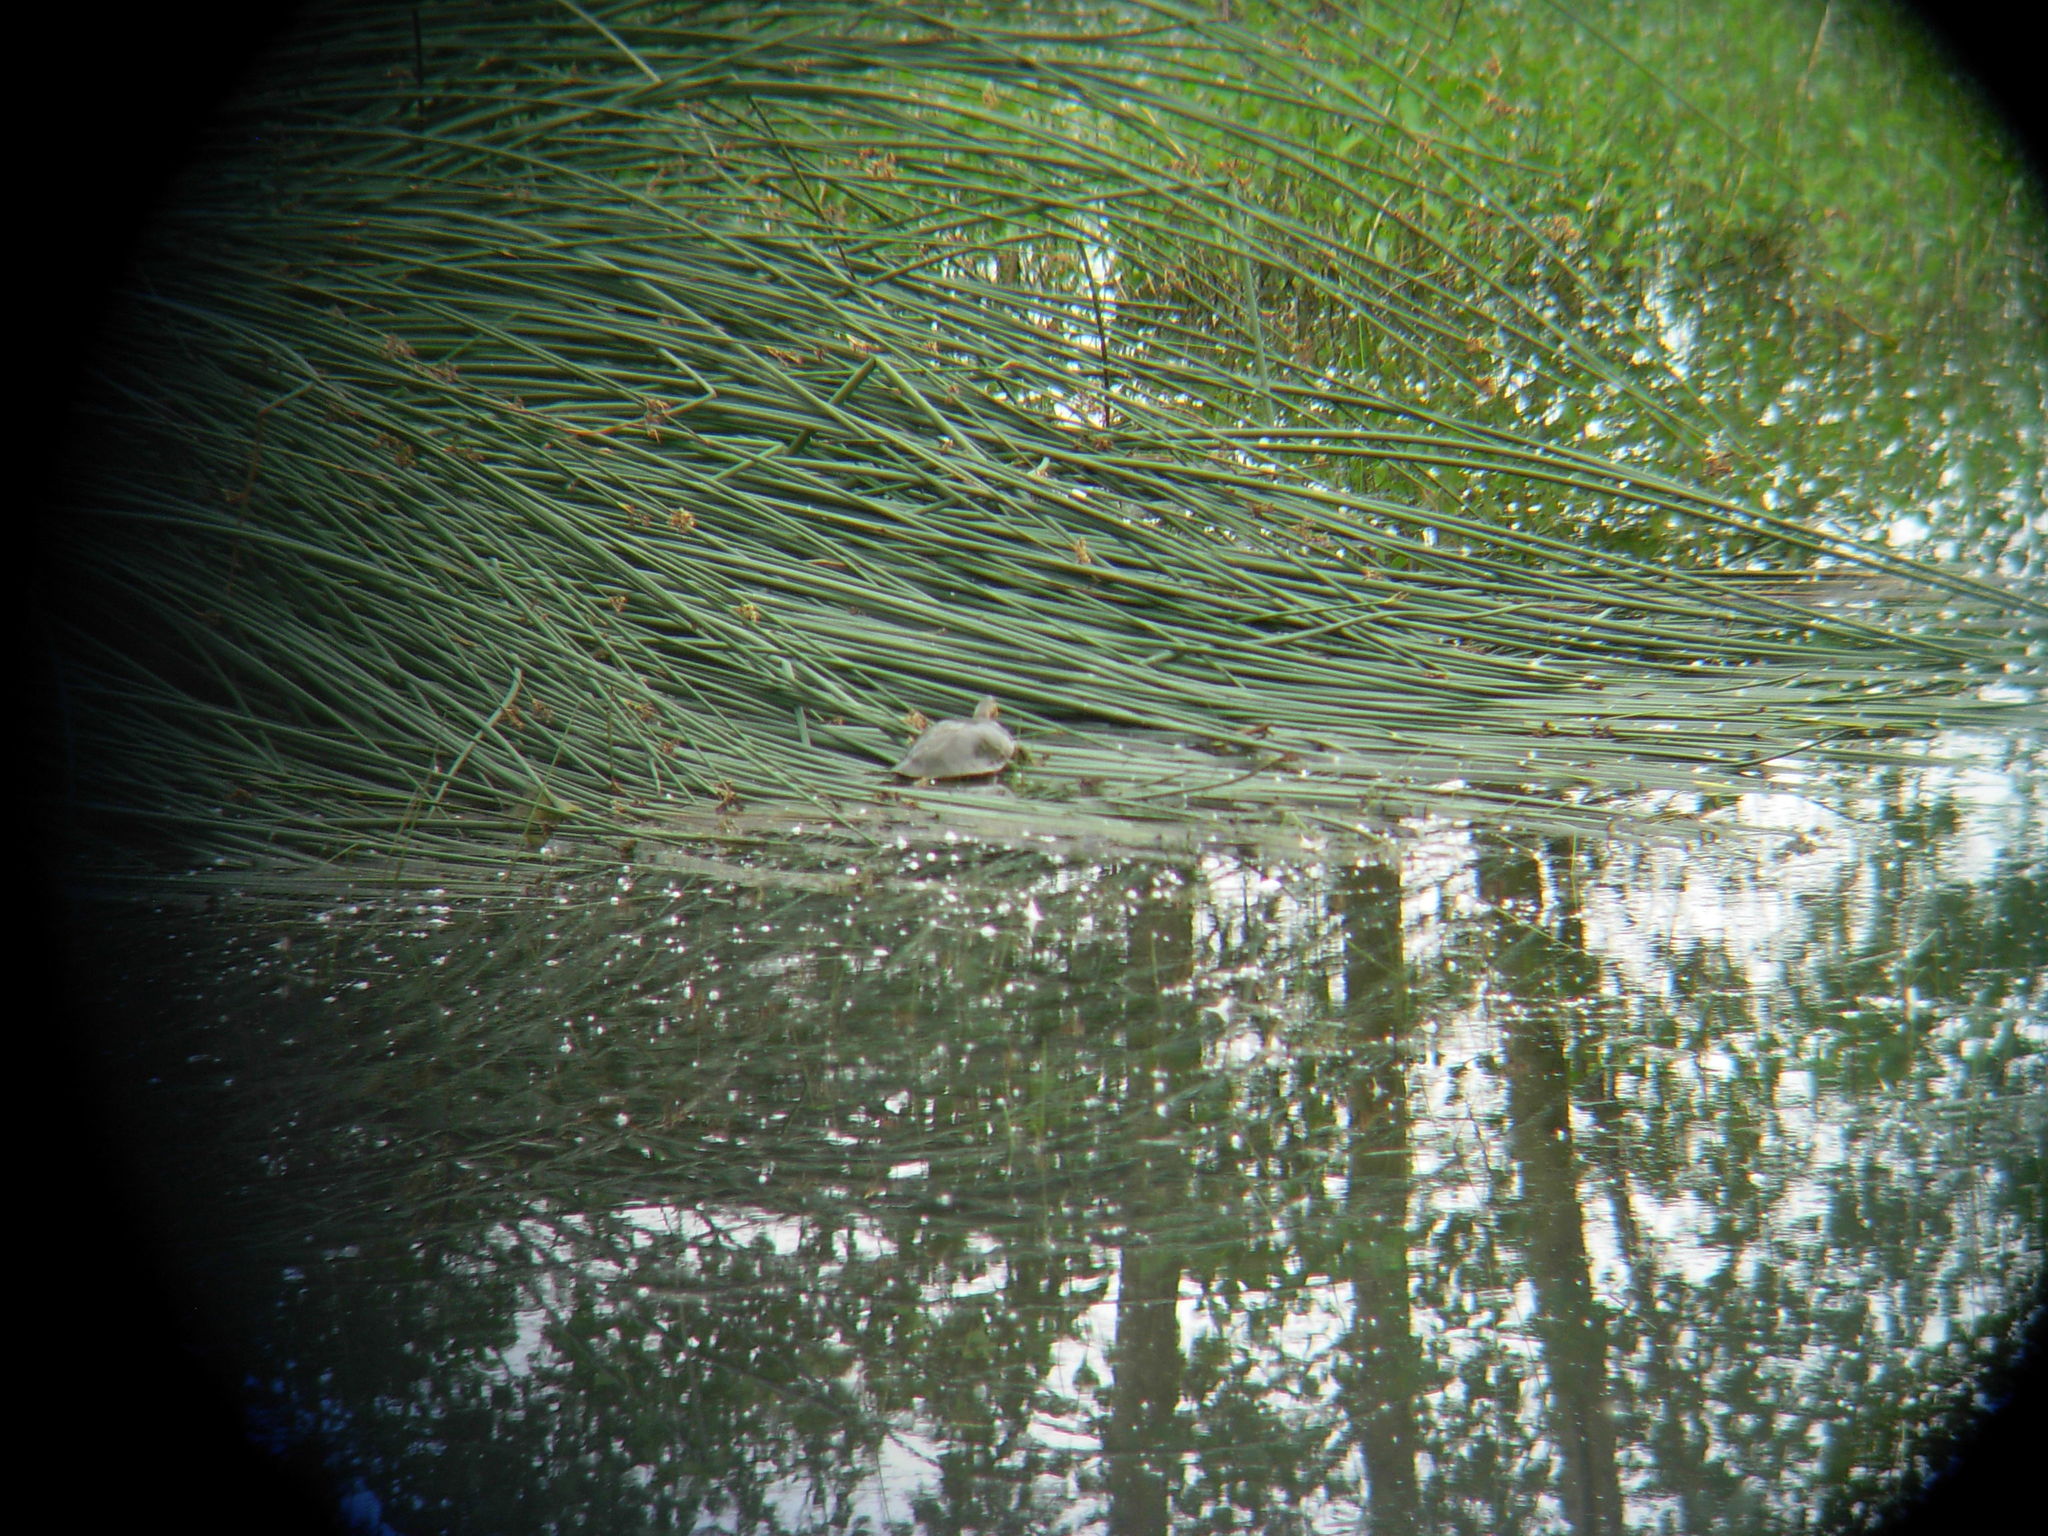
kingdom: Animalia
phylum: Chordata
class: Testudines
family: Emydidae
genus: Chrysemys
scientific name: Chrysemys picta
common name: Painted turtle
